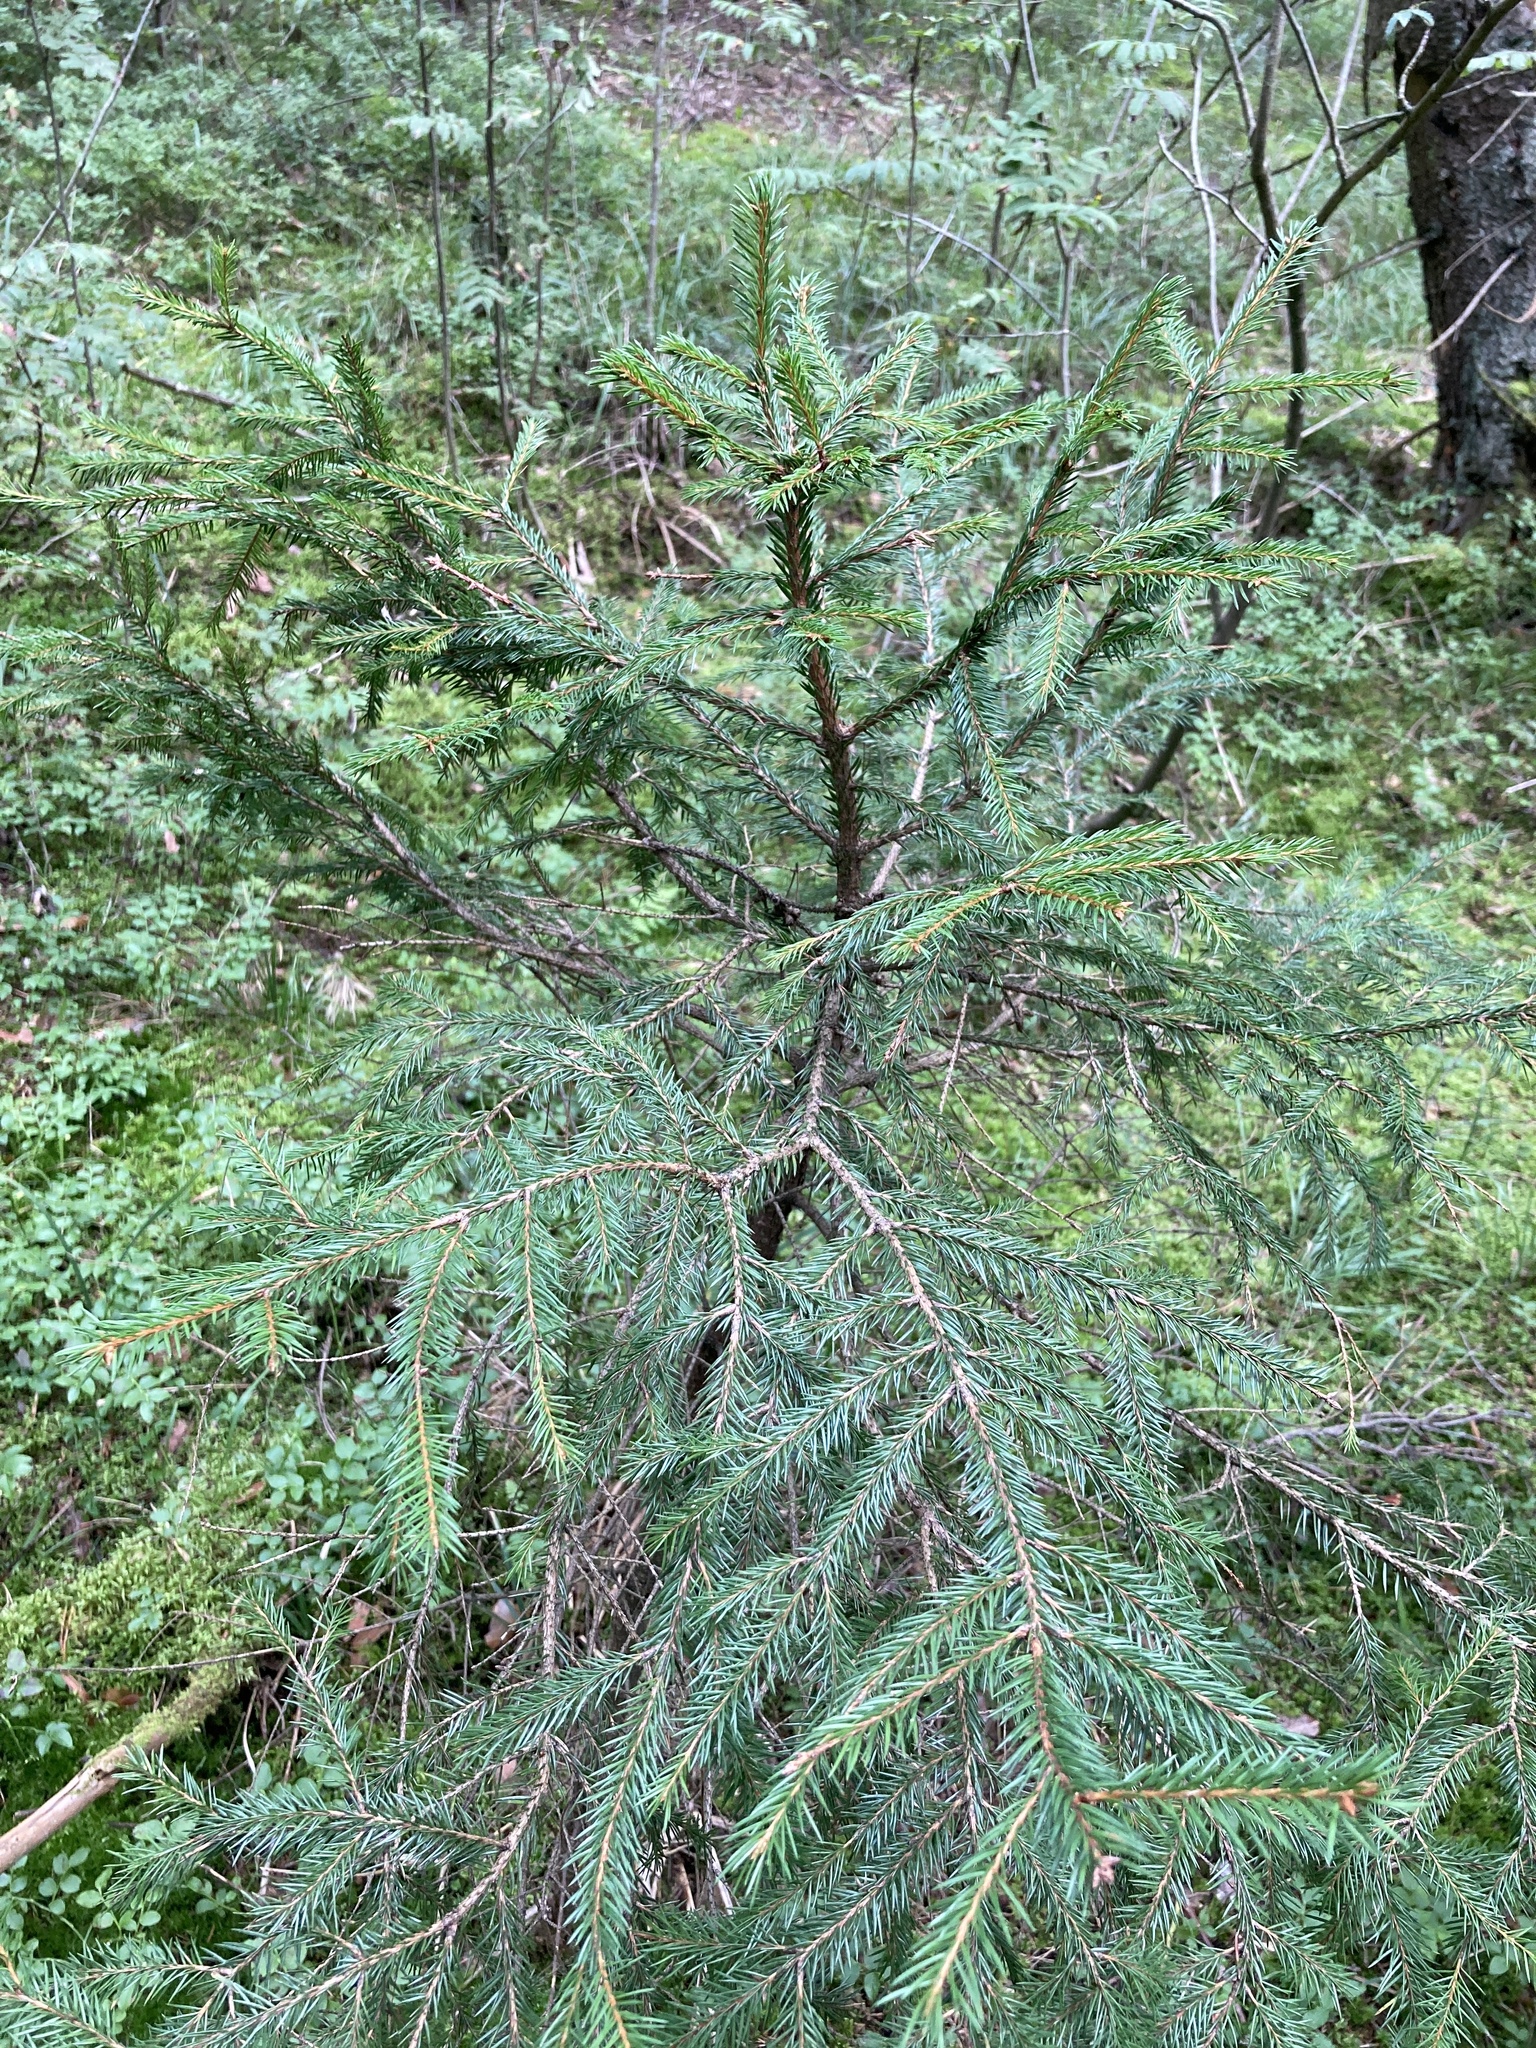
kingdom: Plantae
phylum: Tracheophyta
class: Pinopsida
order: Pinales
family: Pinaceae
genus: Picea
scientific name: Picea abies
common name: Norway spruce
